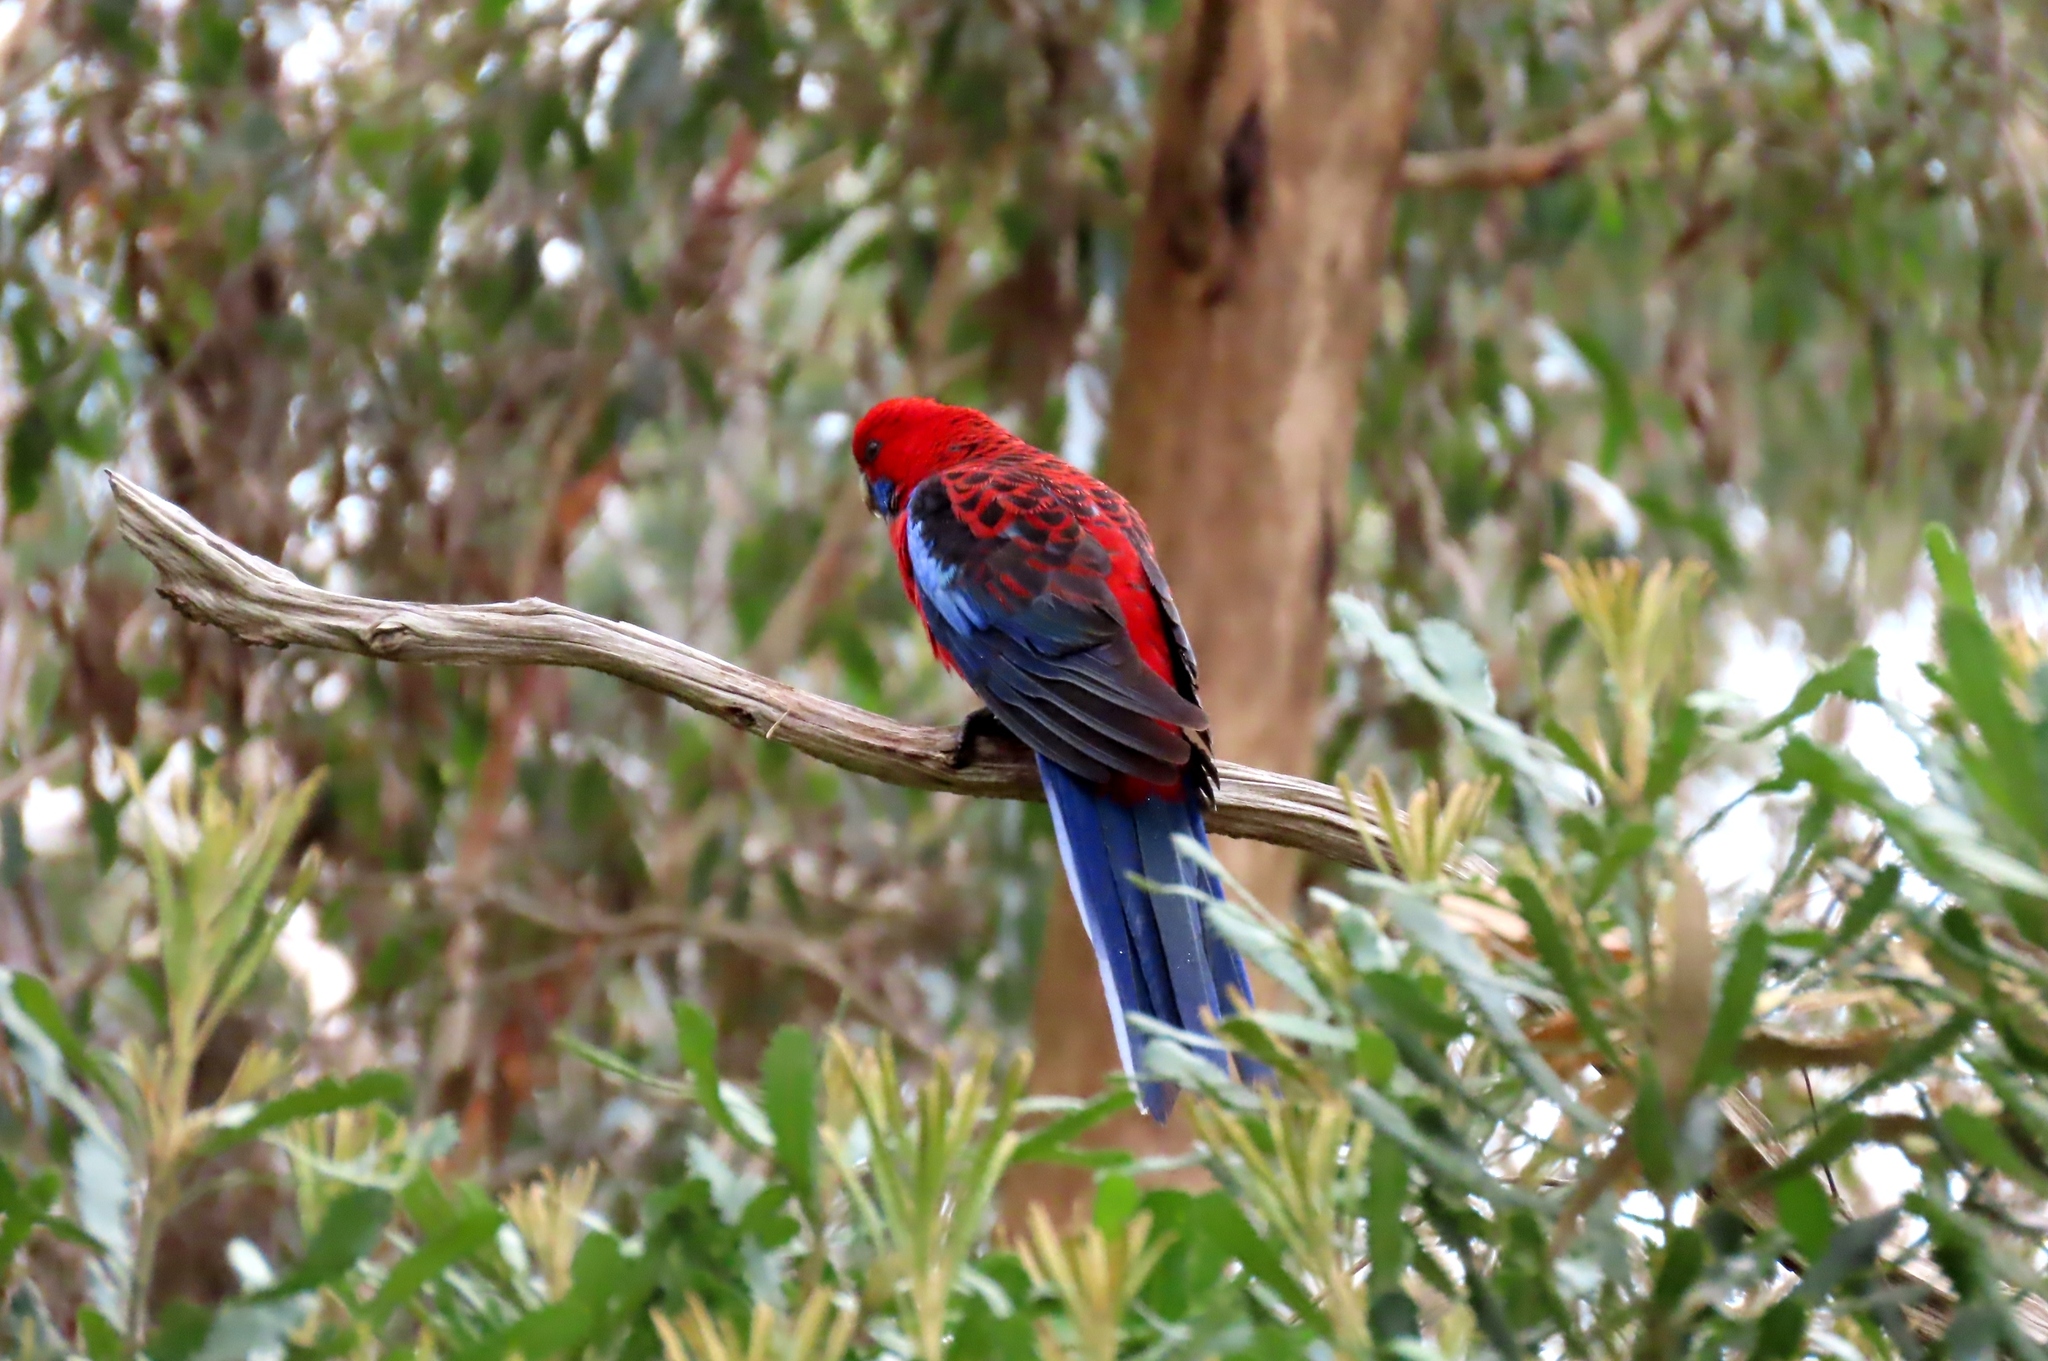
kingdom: Animalia
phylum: Chordata
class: Aves
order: Psittaciformes
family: Psittacidae
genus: Platycercus
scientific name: Platycercus elegans
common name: Crimson rosella
